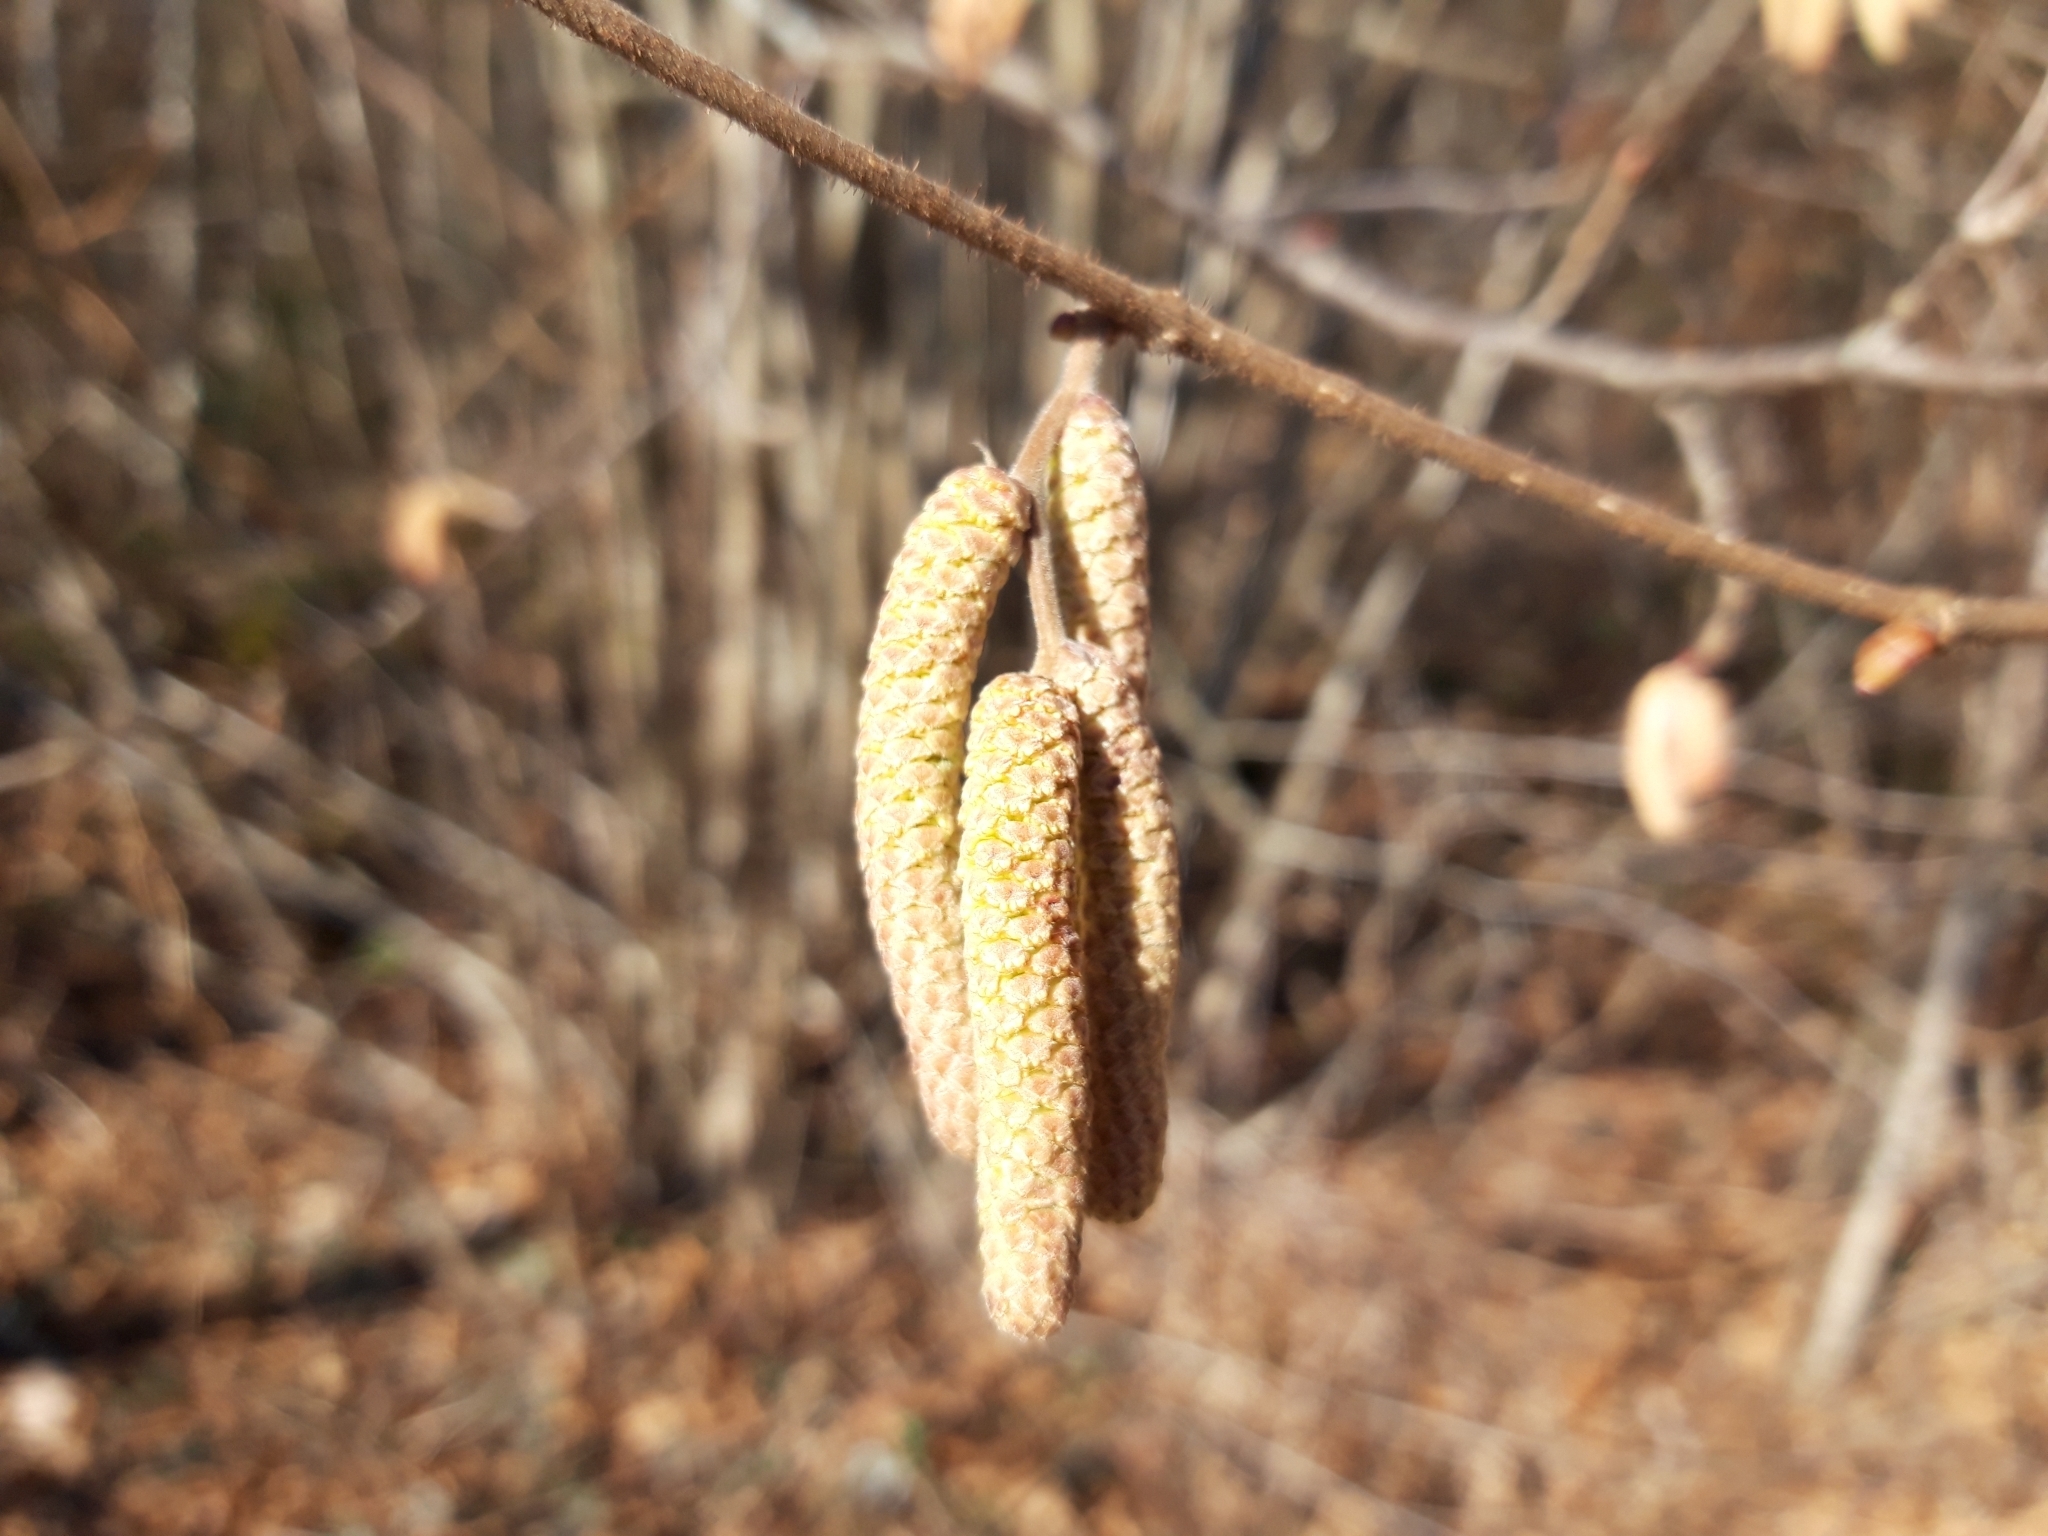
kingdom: Plantae
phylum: Tracheophyta
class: Magnoliopsida
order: Fagales
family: Betulaceae
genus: Corylus
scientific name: Corylus avellana
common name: European hazel
